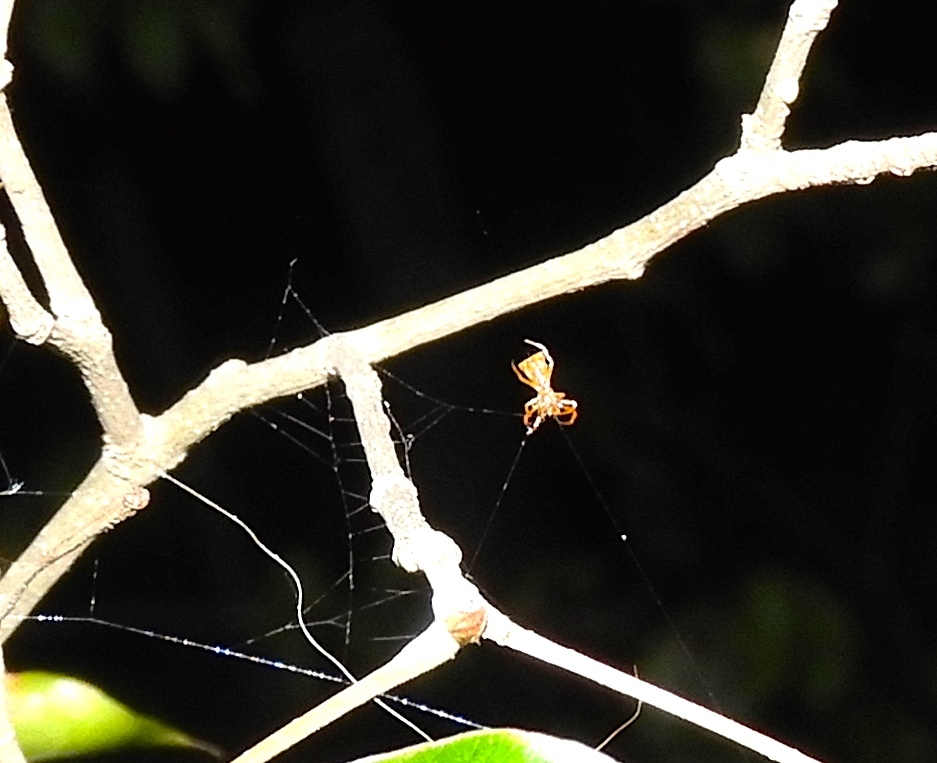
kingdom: Animalia
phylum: Arthropoda
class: Arachnida
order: Araneae
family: Araneidae
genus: Micrathena
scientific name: Micrathena
